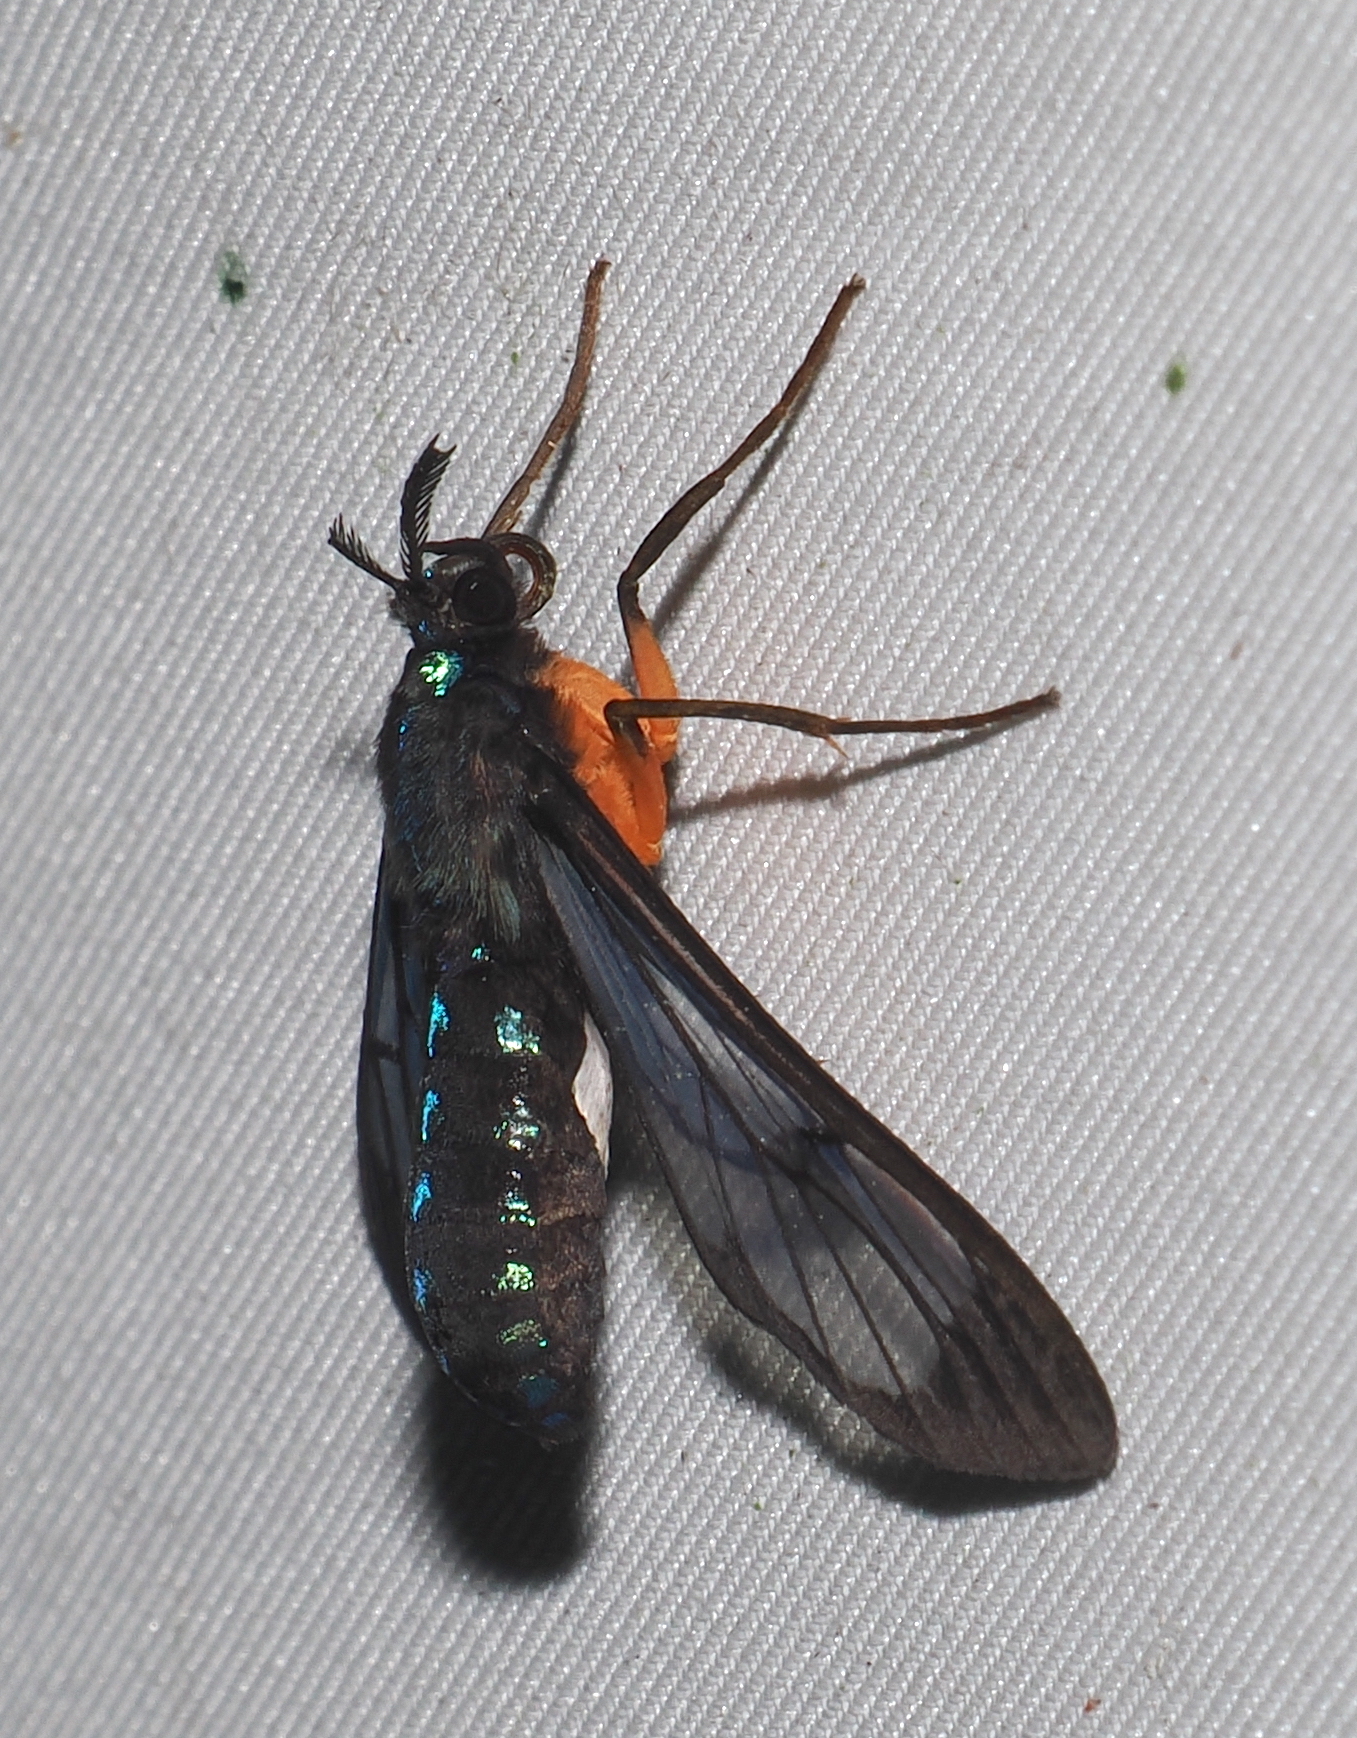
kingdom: Animalia
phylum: Arthropoda
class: Insecta
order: Lepidoptera
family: Erebidae
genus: Cosmosoma
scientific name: Cosmosoma subflamma
